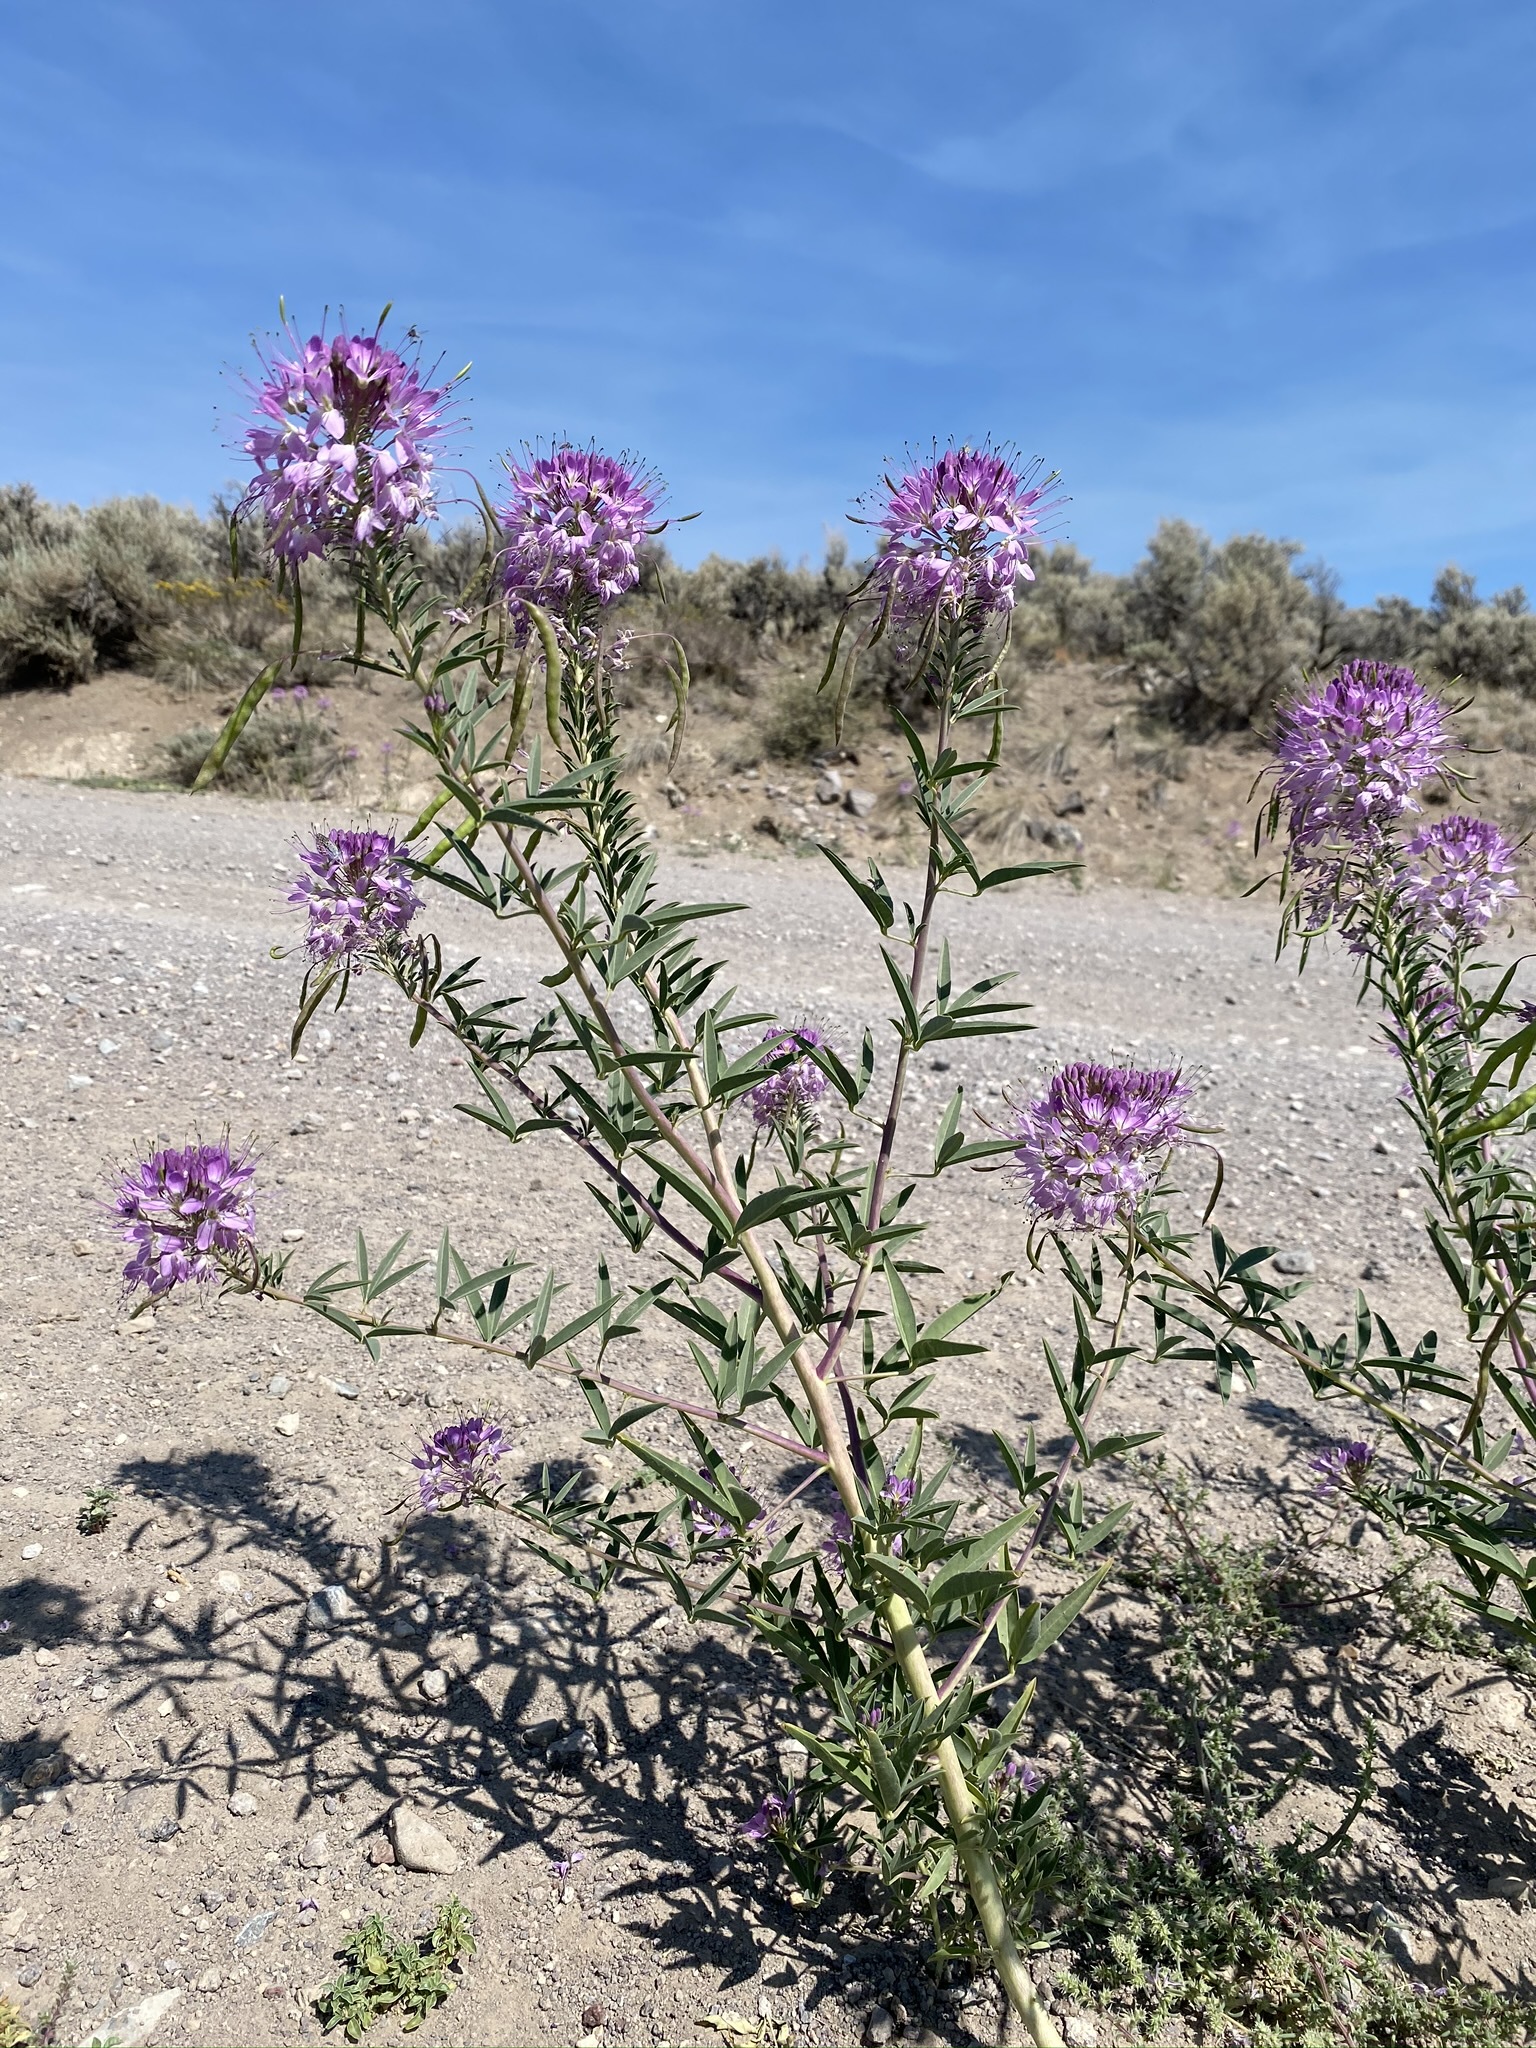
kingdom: Plantae
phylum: Tracheophyta
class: Magnoliopsida
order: Brassicales
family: Cleomaceae
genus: Cleomella
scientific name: Cleomella serrulata
